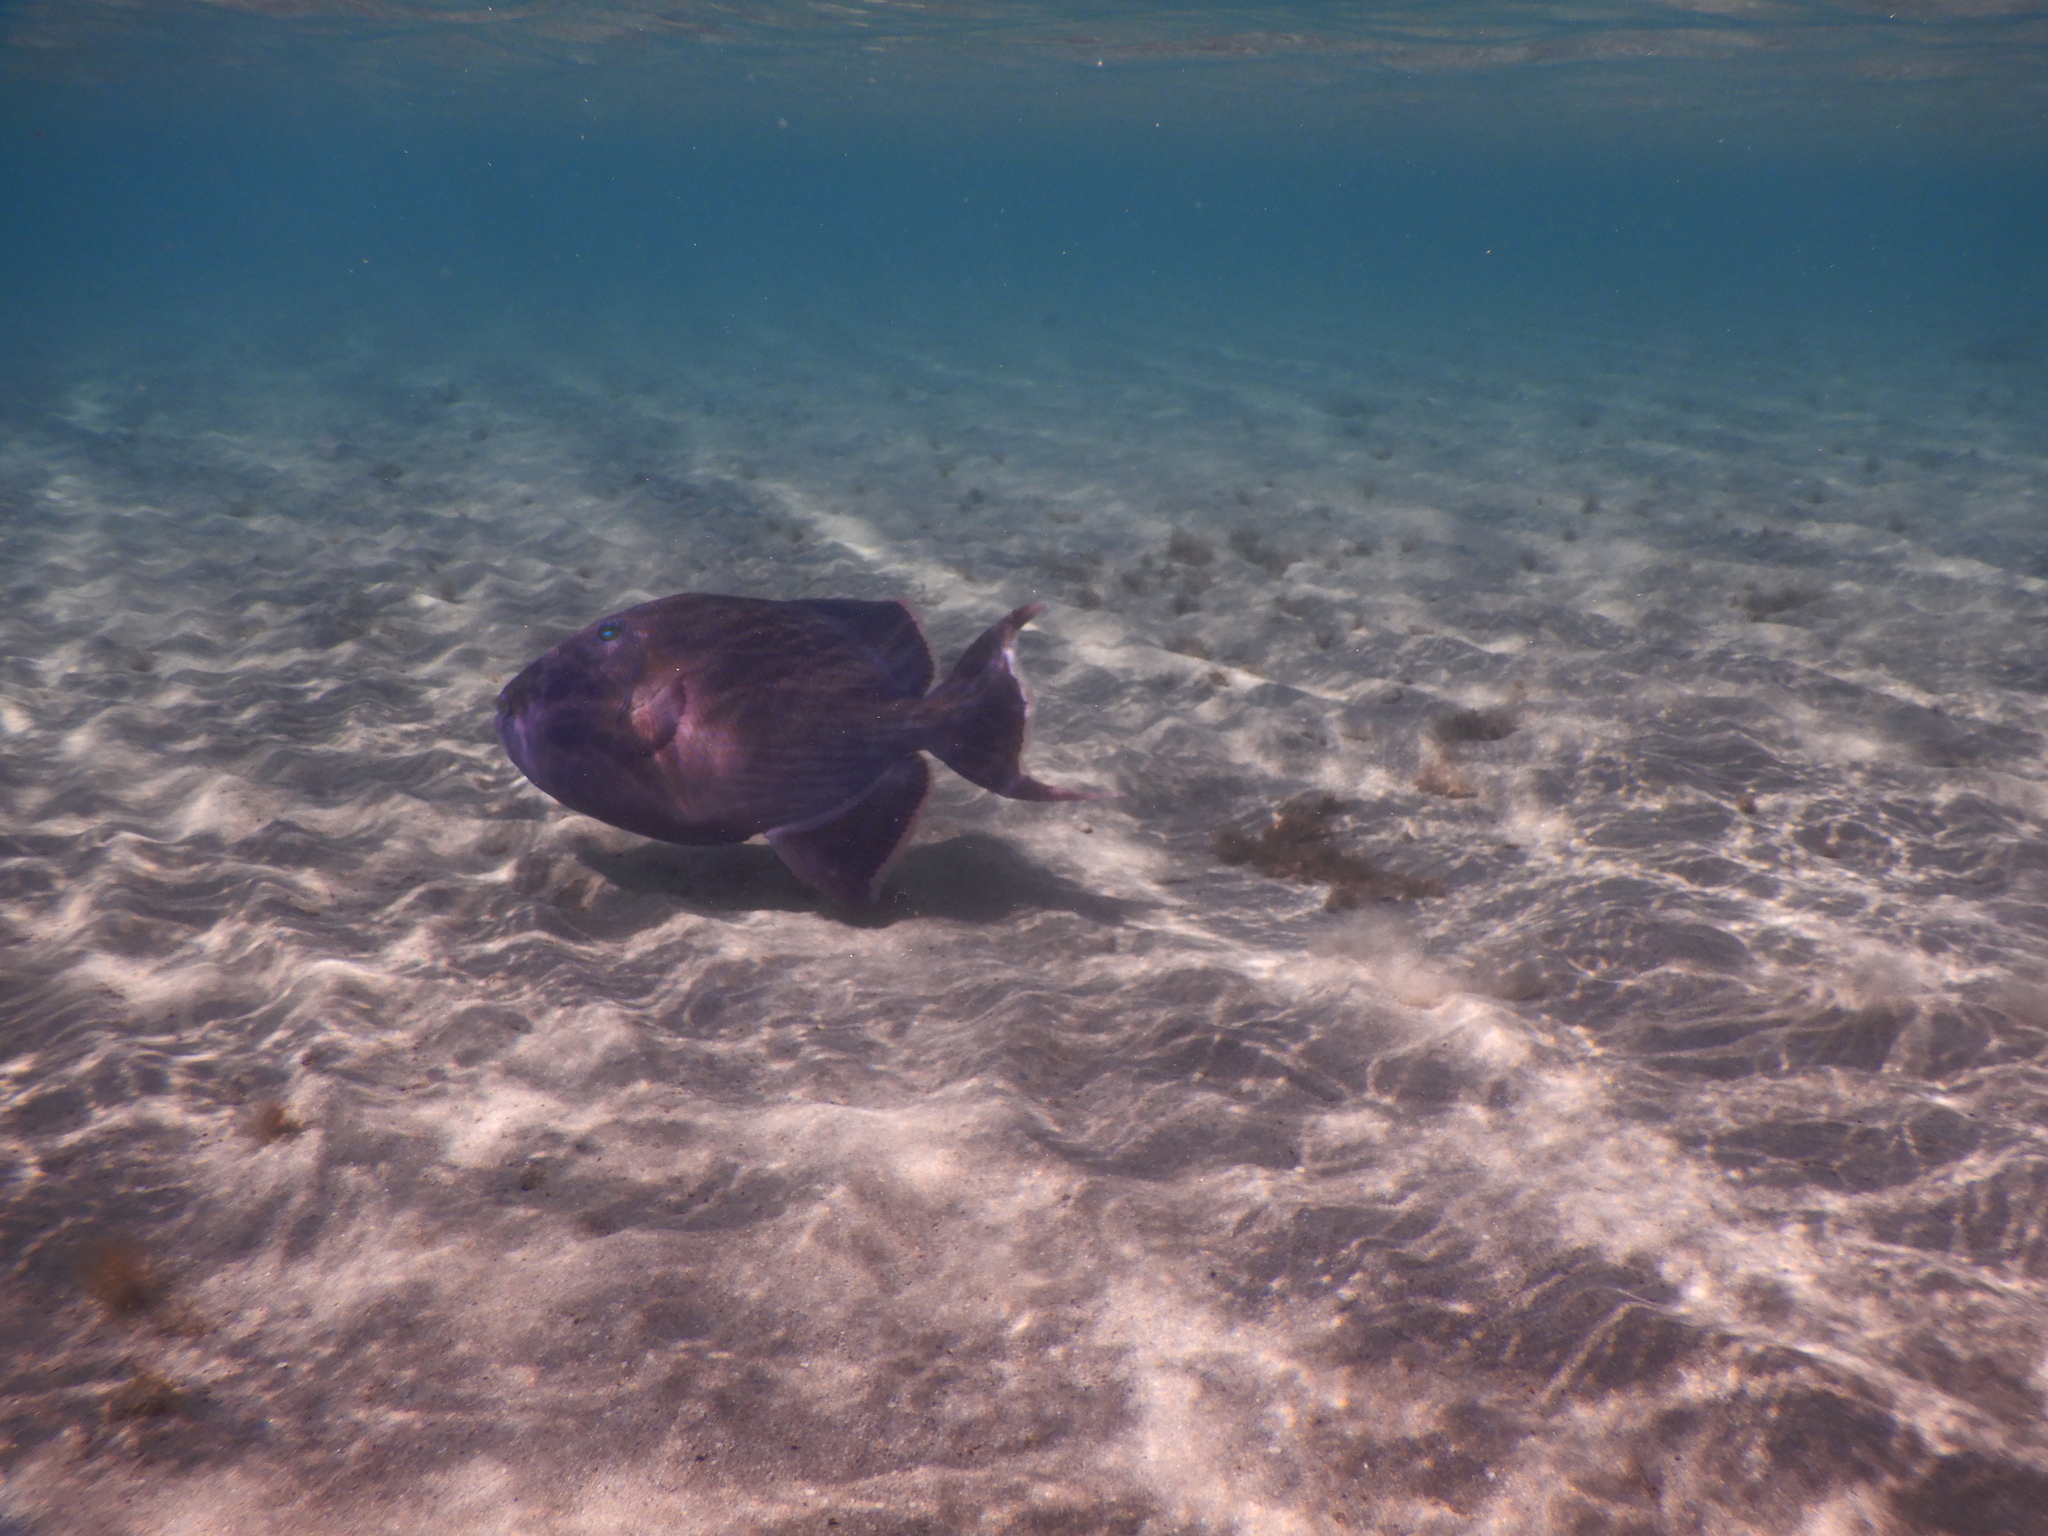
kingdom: Animalia
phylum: Chordata
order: Tetraodontiformes
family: Balistidae
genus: Pseudobalistes
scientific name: Pseudobalistes fuscus
